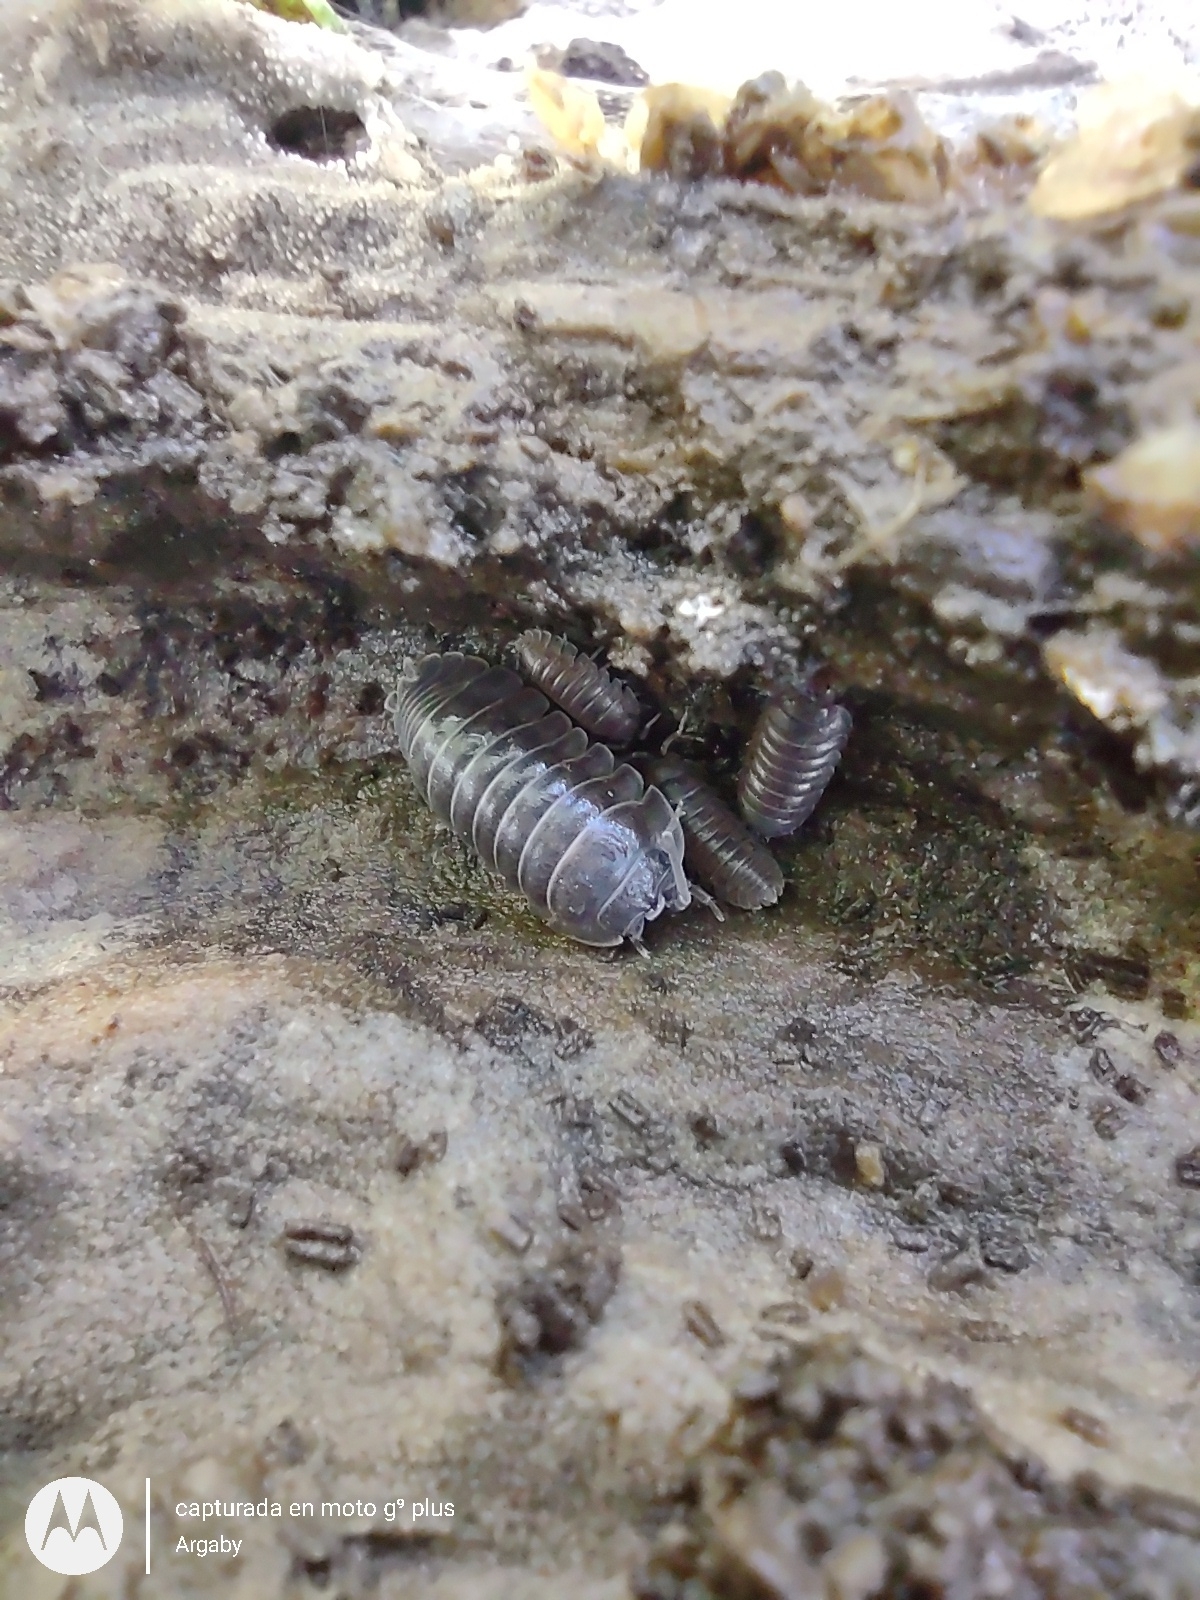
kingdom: Animalia
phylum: Arthropoda
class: Malacostraca
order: Isopoda
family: Armadillidiidae
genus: Armadillidium
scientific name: Armadillidium vulgare
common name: Common pill woodlouse
